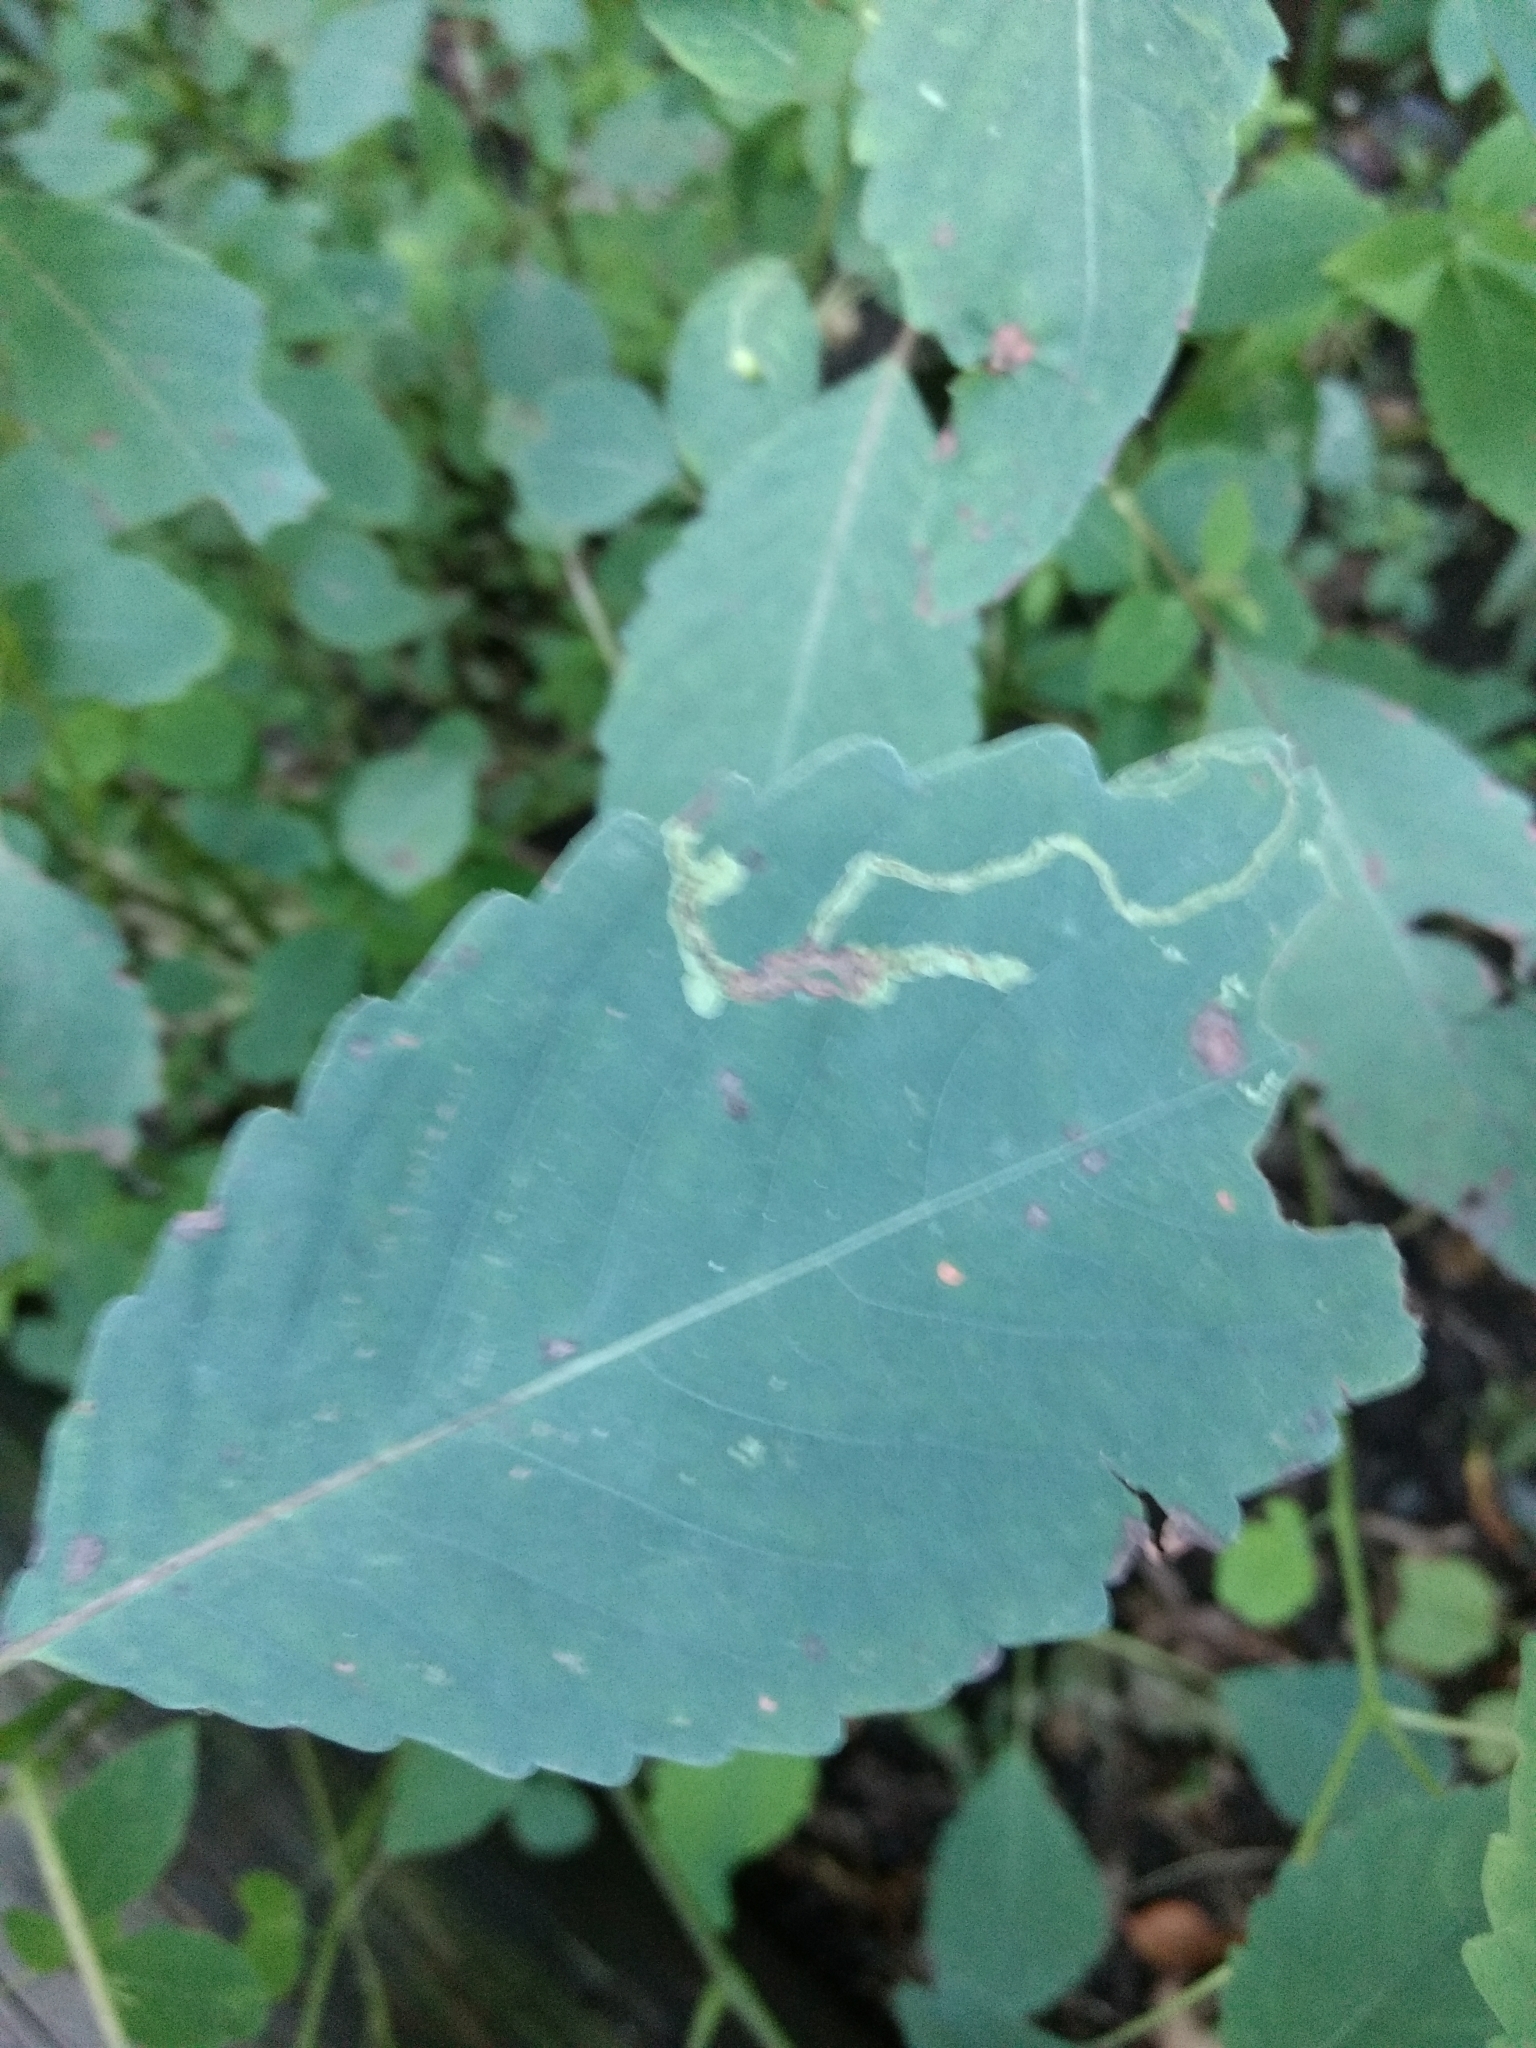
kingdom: Animalia
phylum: Arthropoda
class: Insecta
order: Diptera
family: Agromyzidae
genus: Phytoliriomyza
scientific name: Phytoliriomyza melampyga
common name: Jewelweed leaf-miner fly
